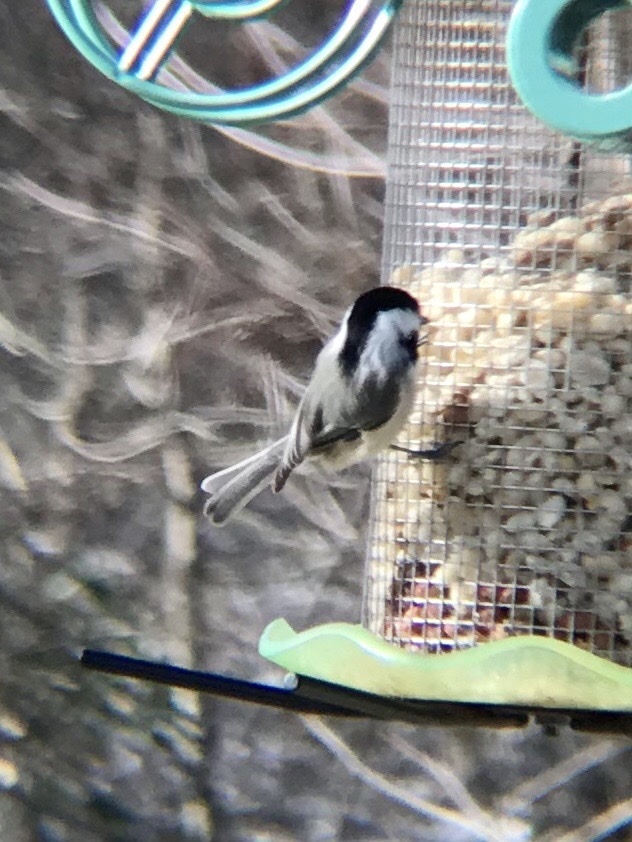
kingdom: Animalia
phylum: Chordata
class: Aves
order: Passeriformes
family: Paridae
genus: Poecile
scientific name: Poecile atricapillus
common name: Black-capped chickadee
